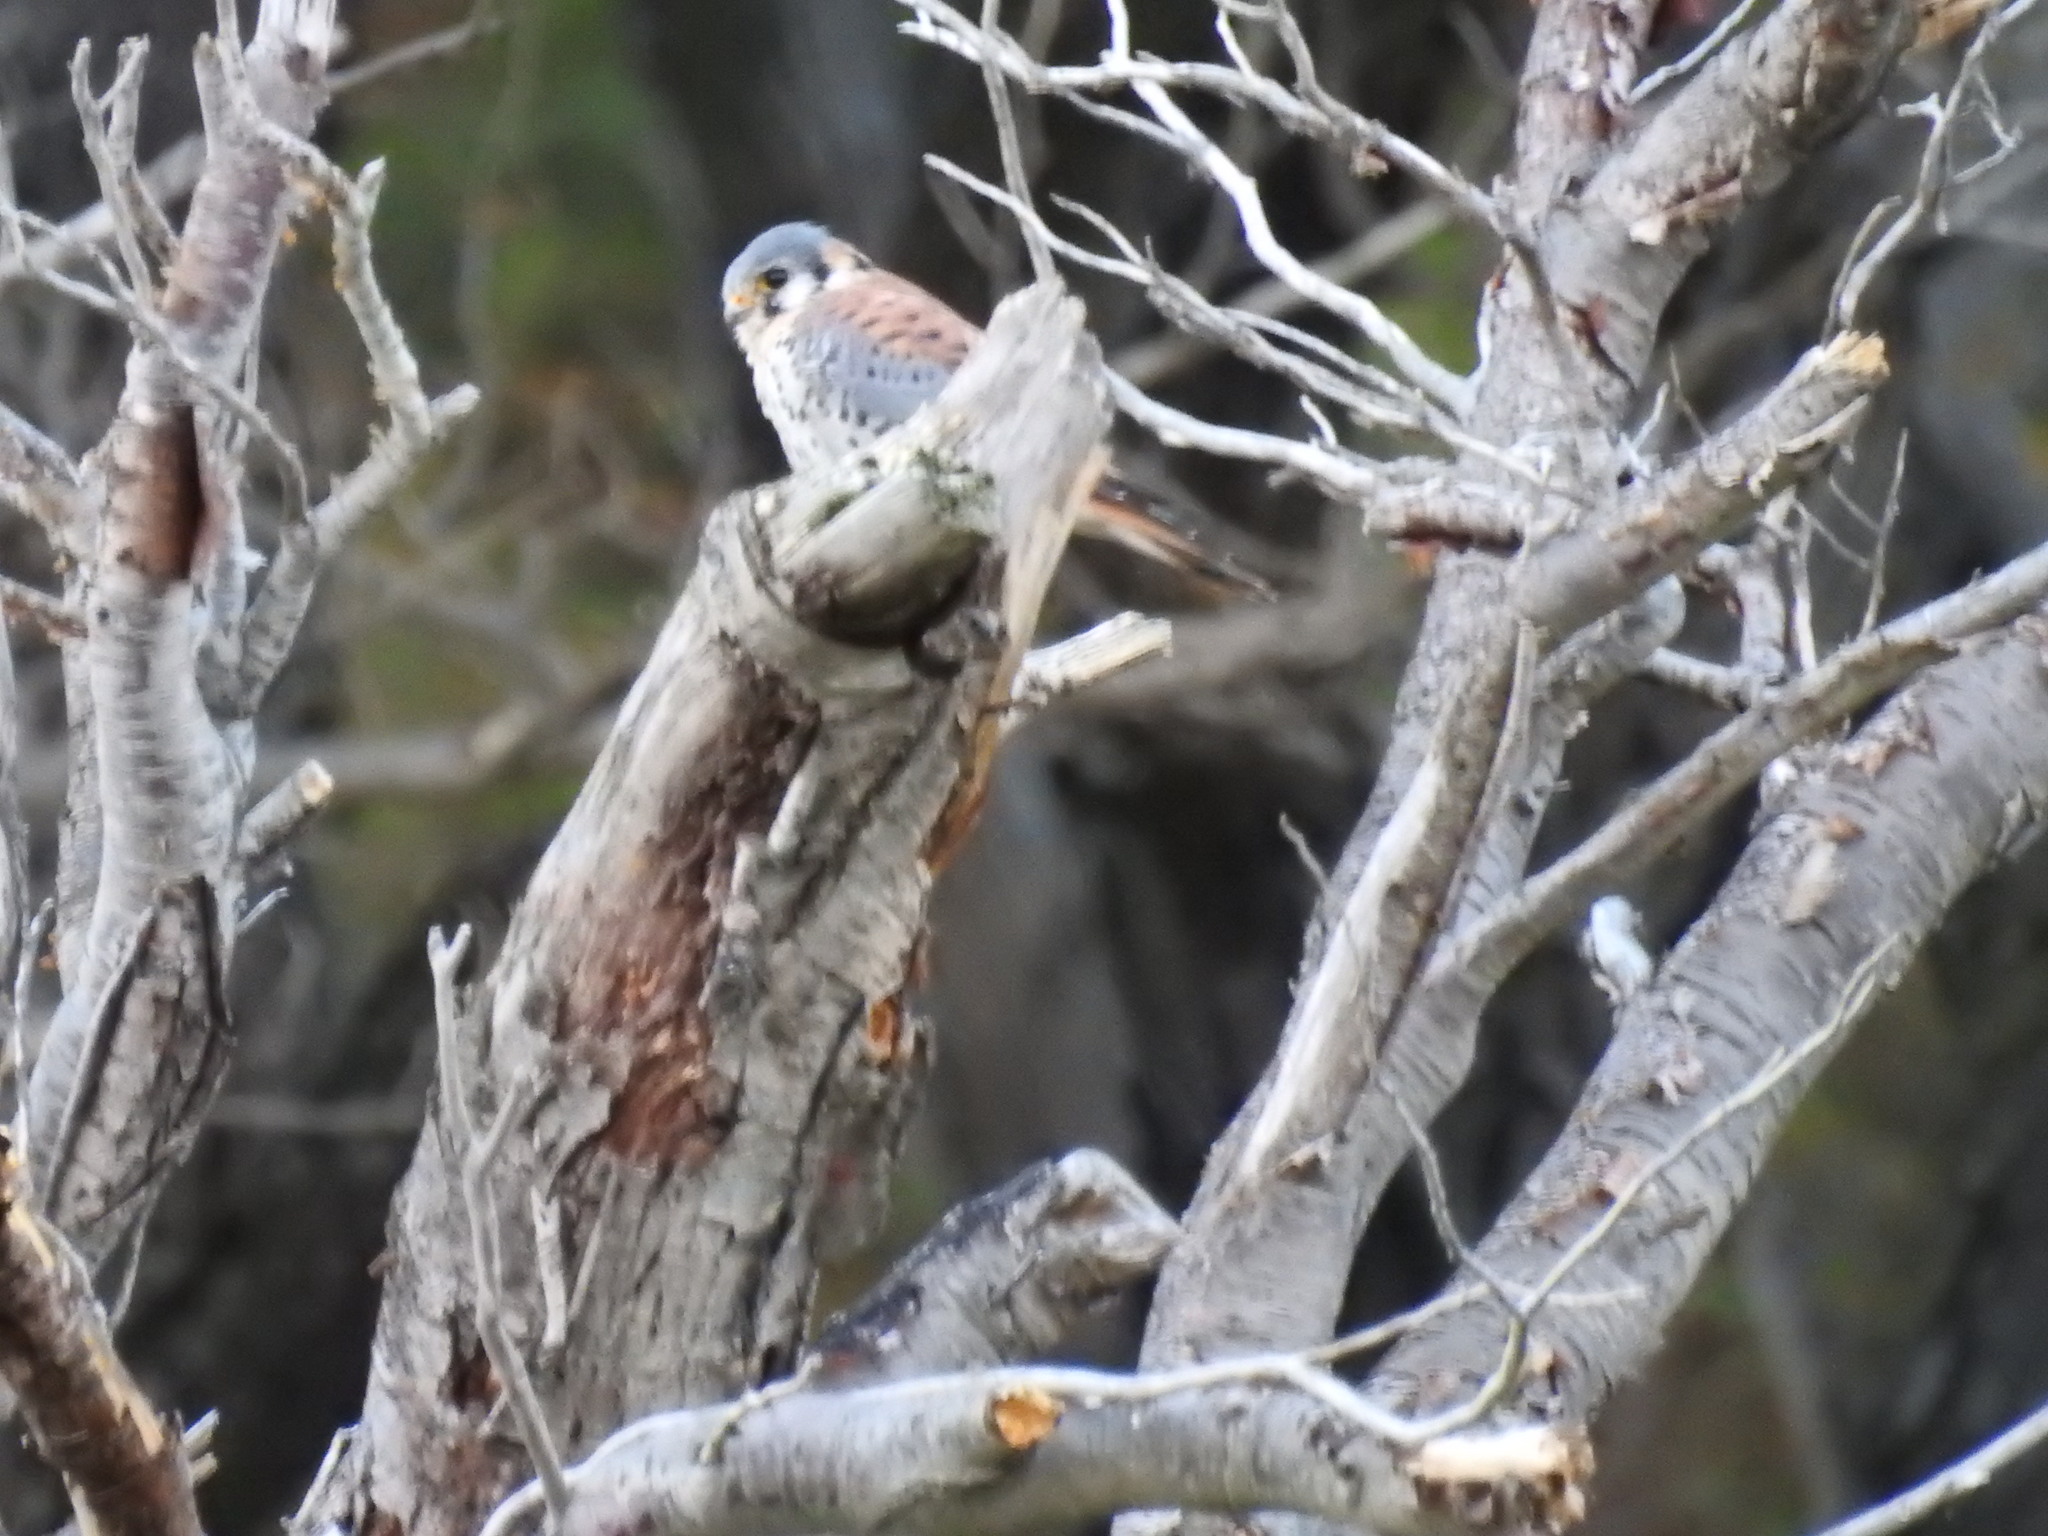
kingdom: Animalia
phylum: Chordata
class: Aves
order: Falconiformes
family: Falconidae
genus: Falco
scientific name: Falco sparverius
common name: American kestrel
